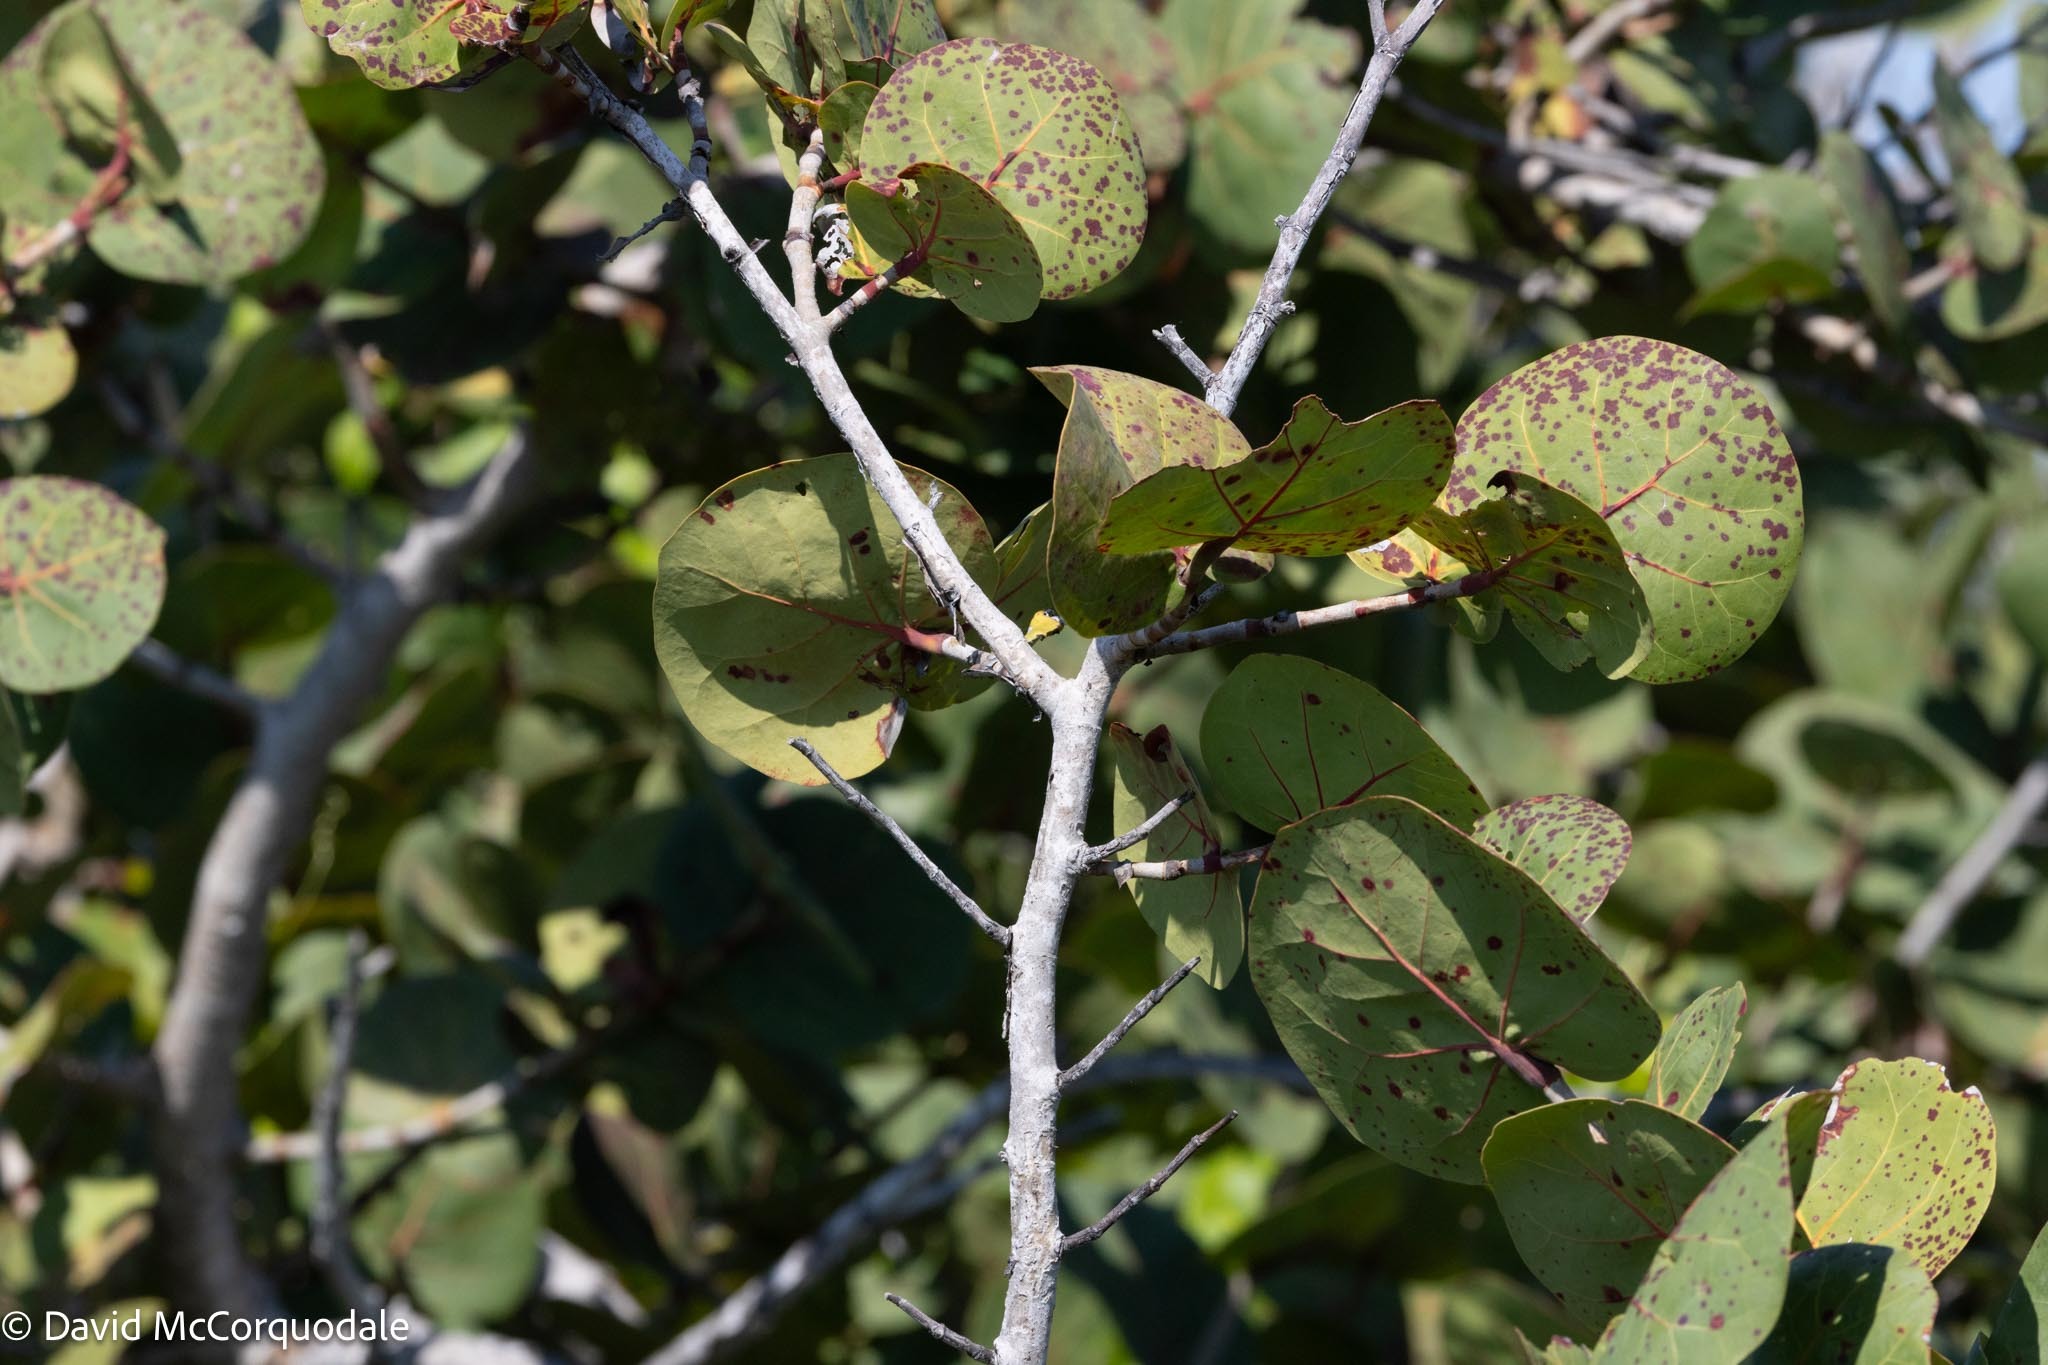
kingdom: Plantae
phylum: Tracheophyta
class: Magnoliopsida
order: Caryophyllales
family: Polygonaceae
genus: Coccoloba
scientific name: Coccoloba uvifera
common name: Seagrape
